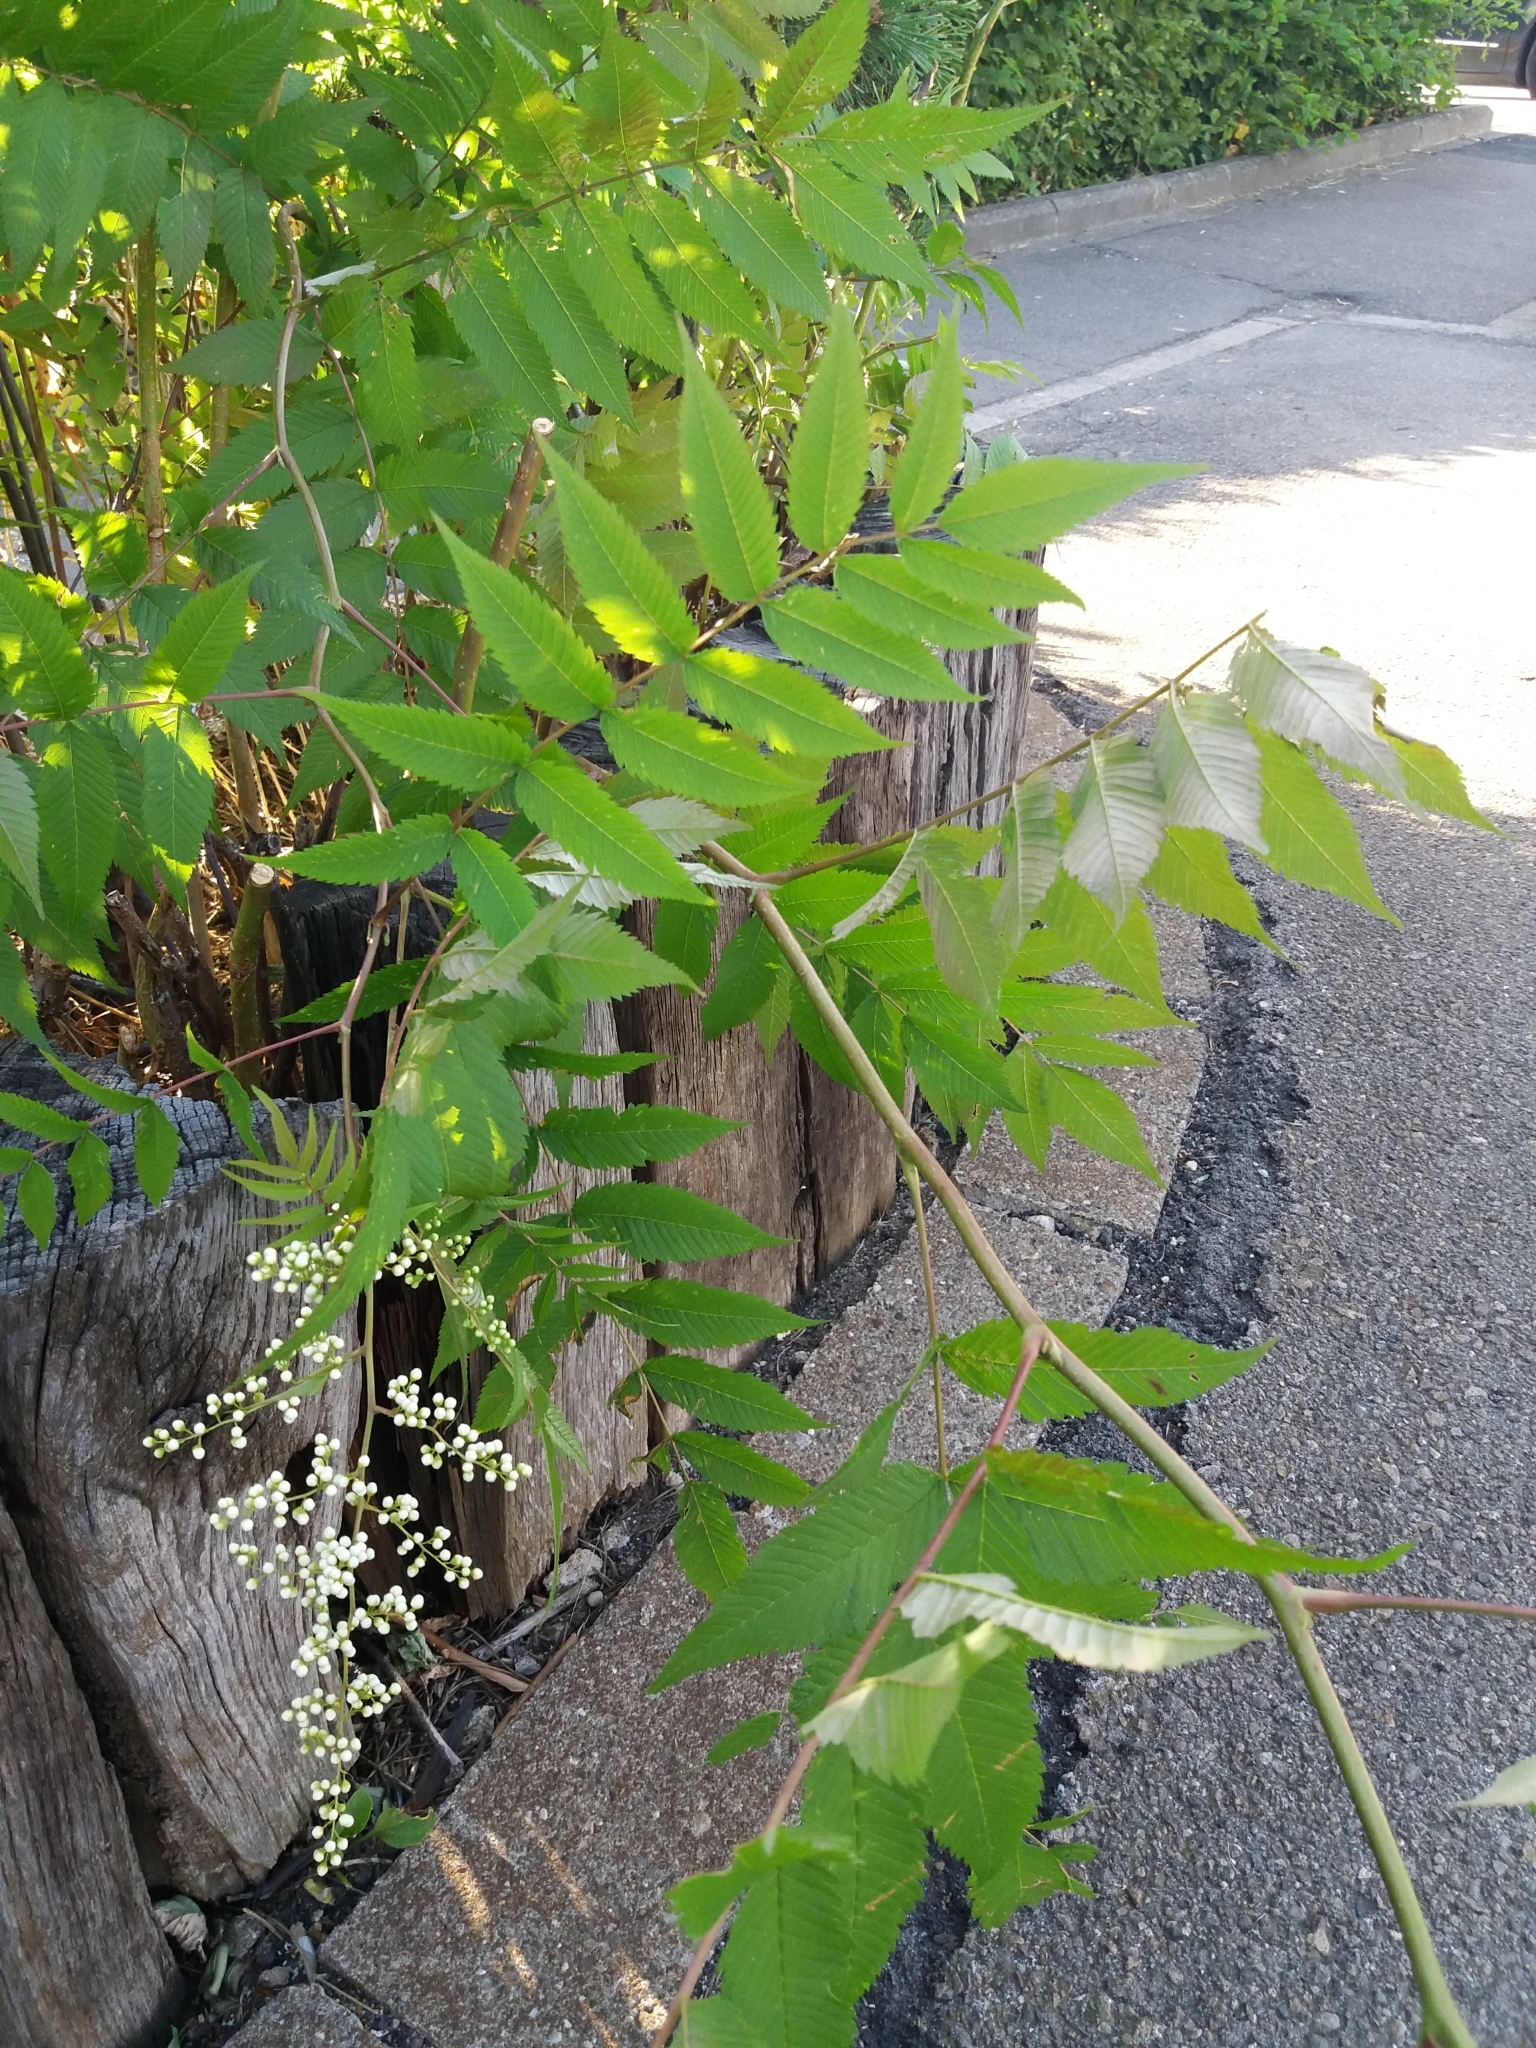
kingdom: Plantae
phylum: Tracheophyta
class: Magnoliopsida
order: Rosales
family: Rosaceae
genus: Sorbaria
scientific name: Sorbaria sorbifolia
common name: False spiraea
